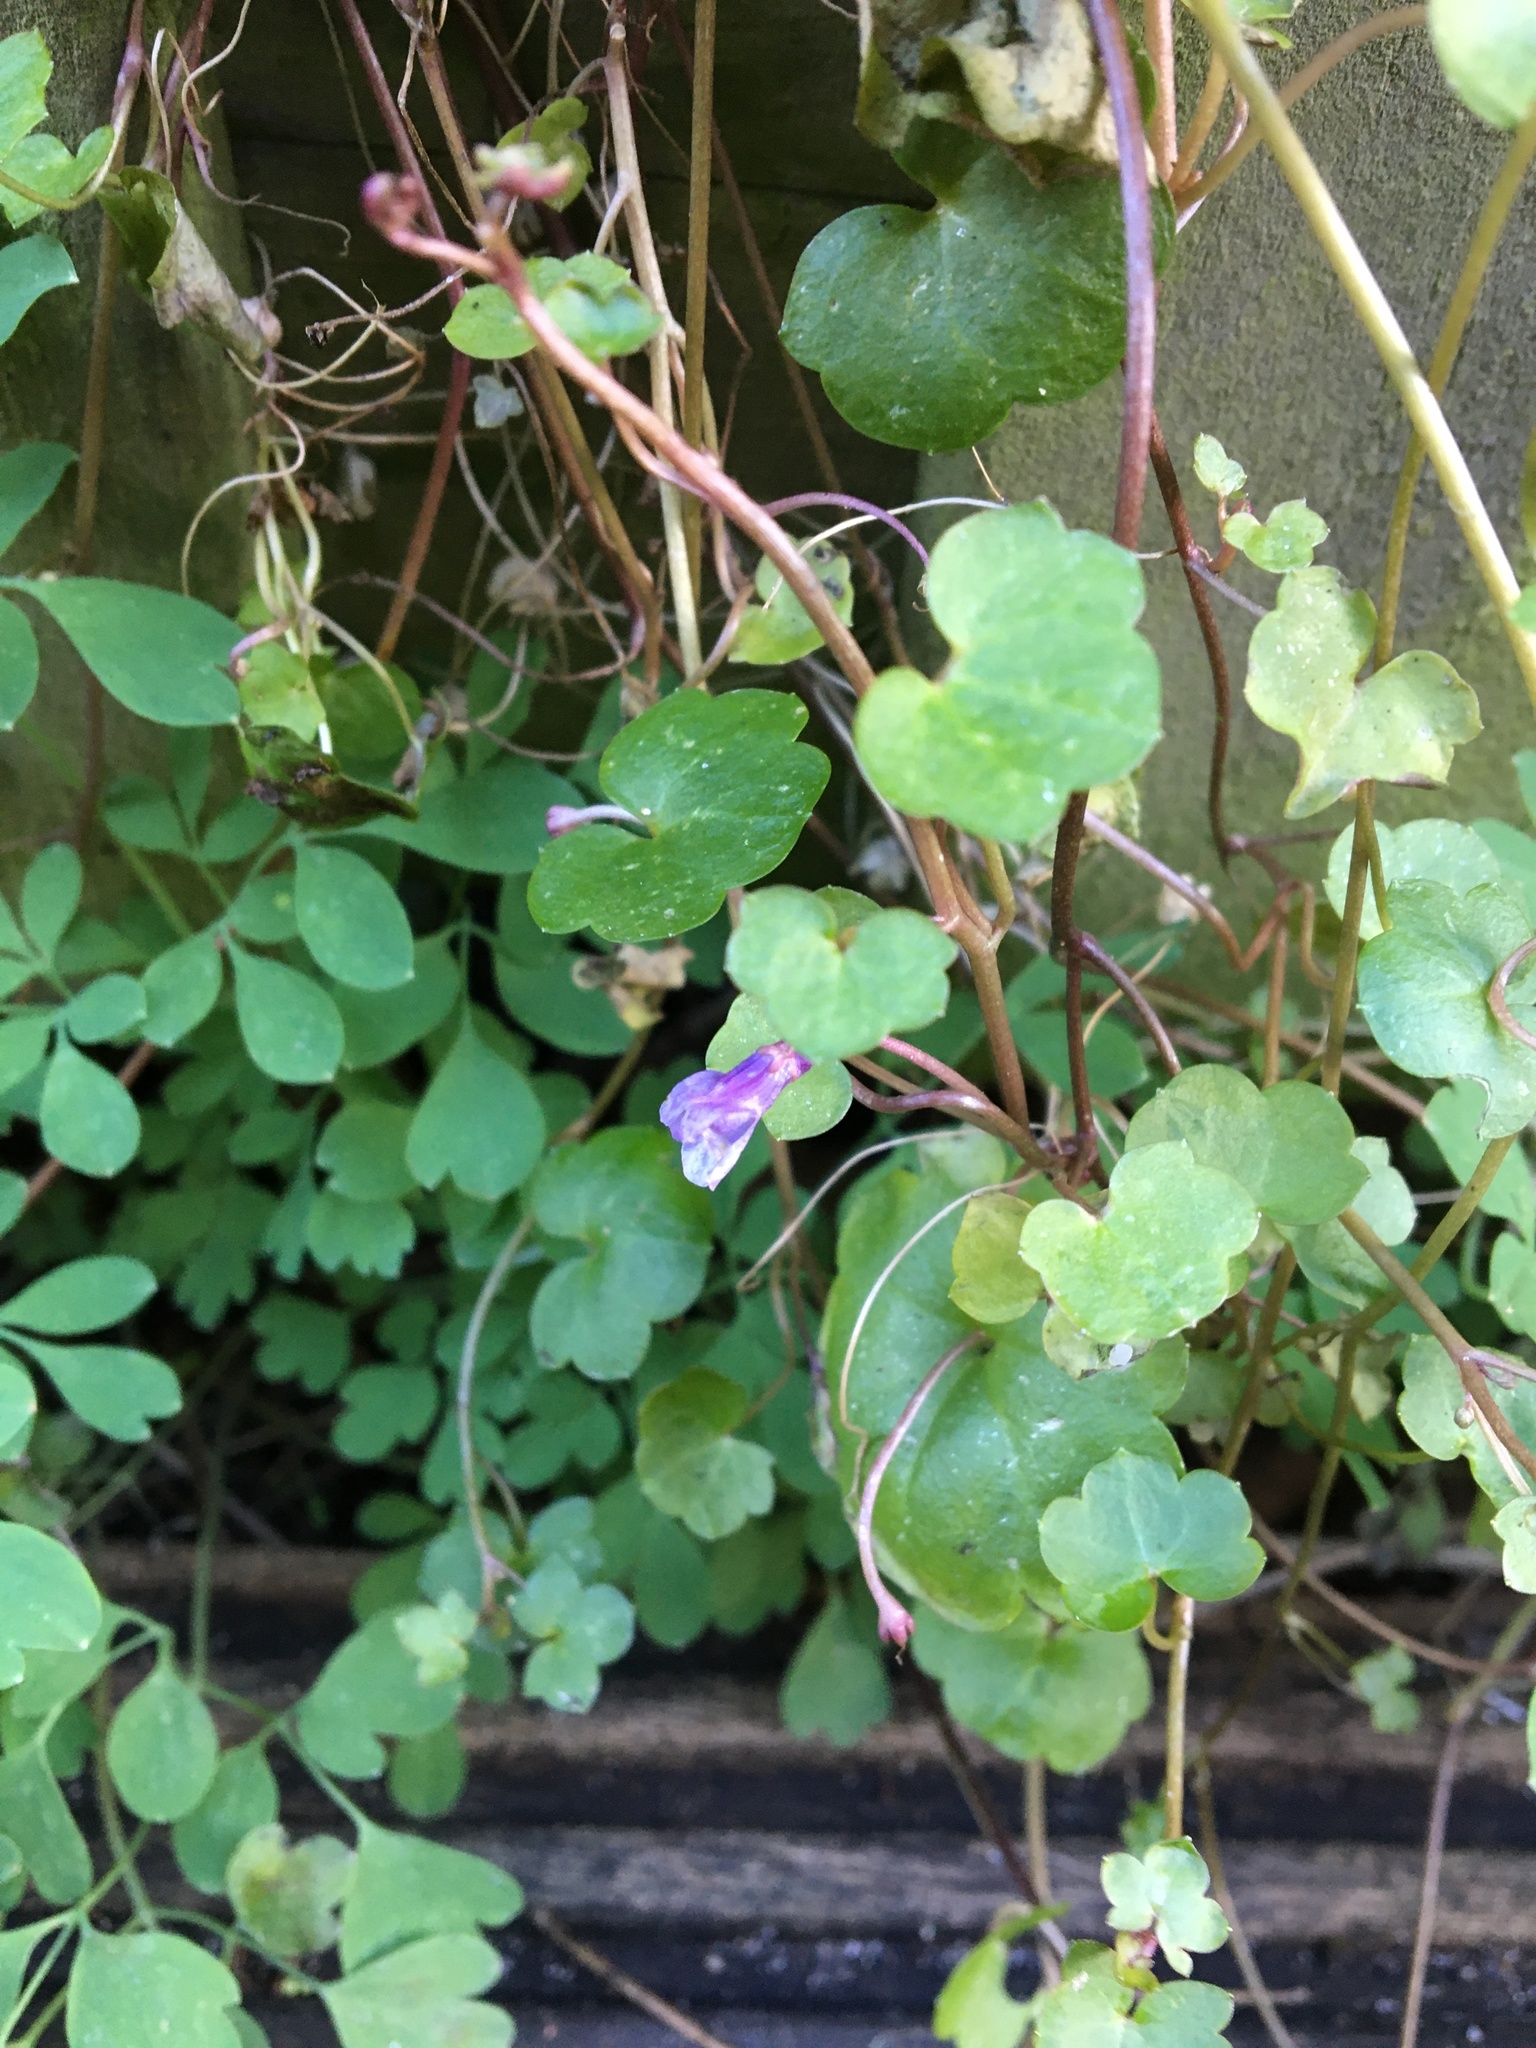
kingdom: Plantae
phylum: Tracheophyta
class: Magnoliopsida
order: Lamiales
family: Plantaginaceae
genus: Cymbalaria
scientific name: Cymbalaria muralis
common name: Ivy-leaved toadflax
